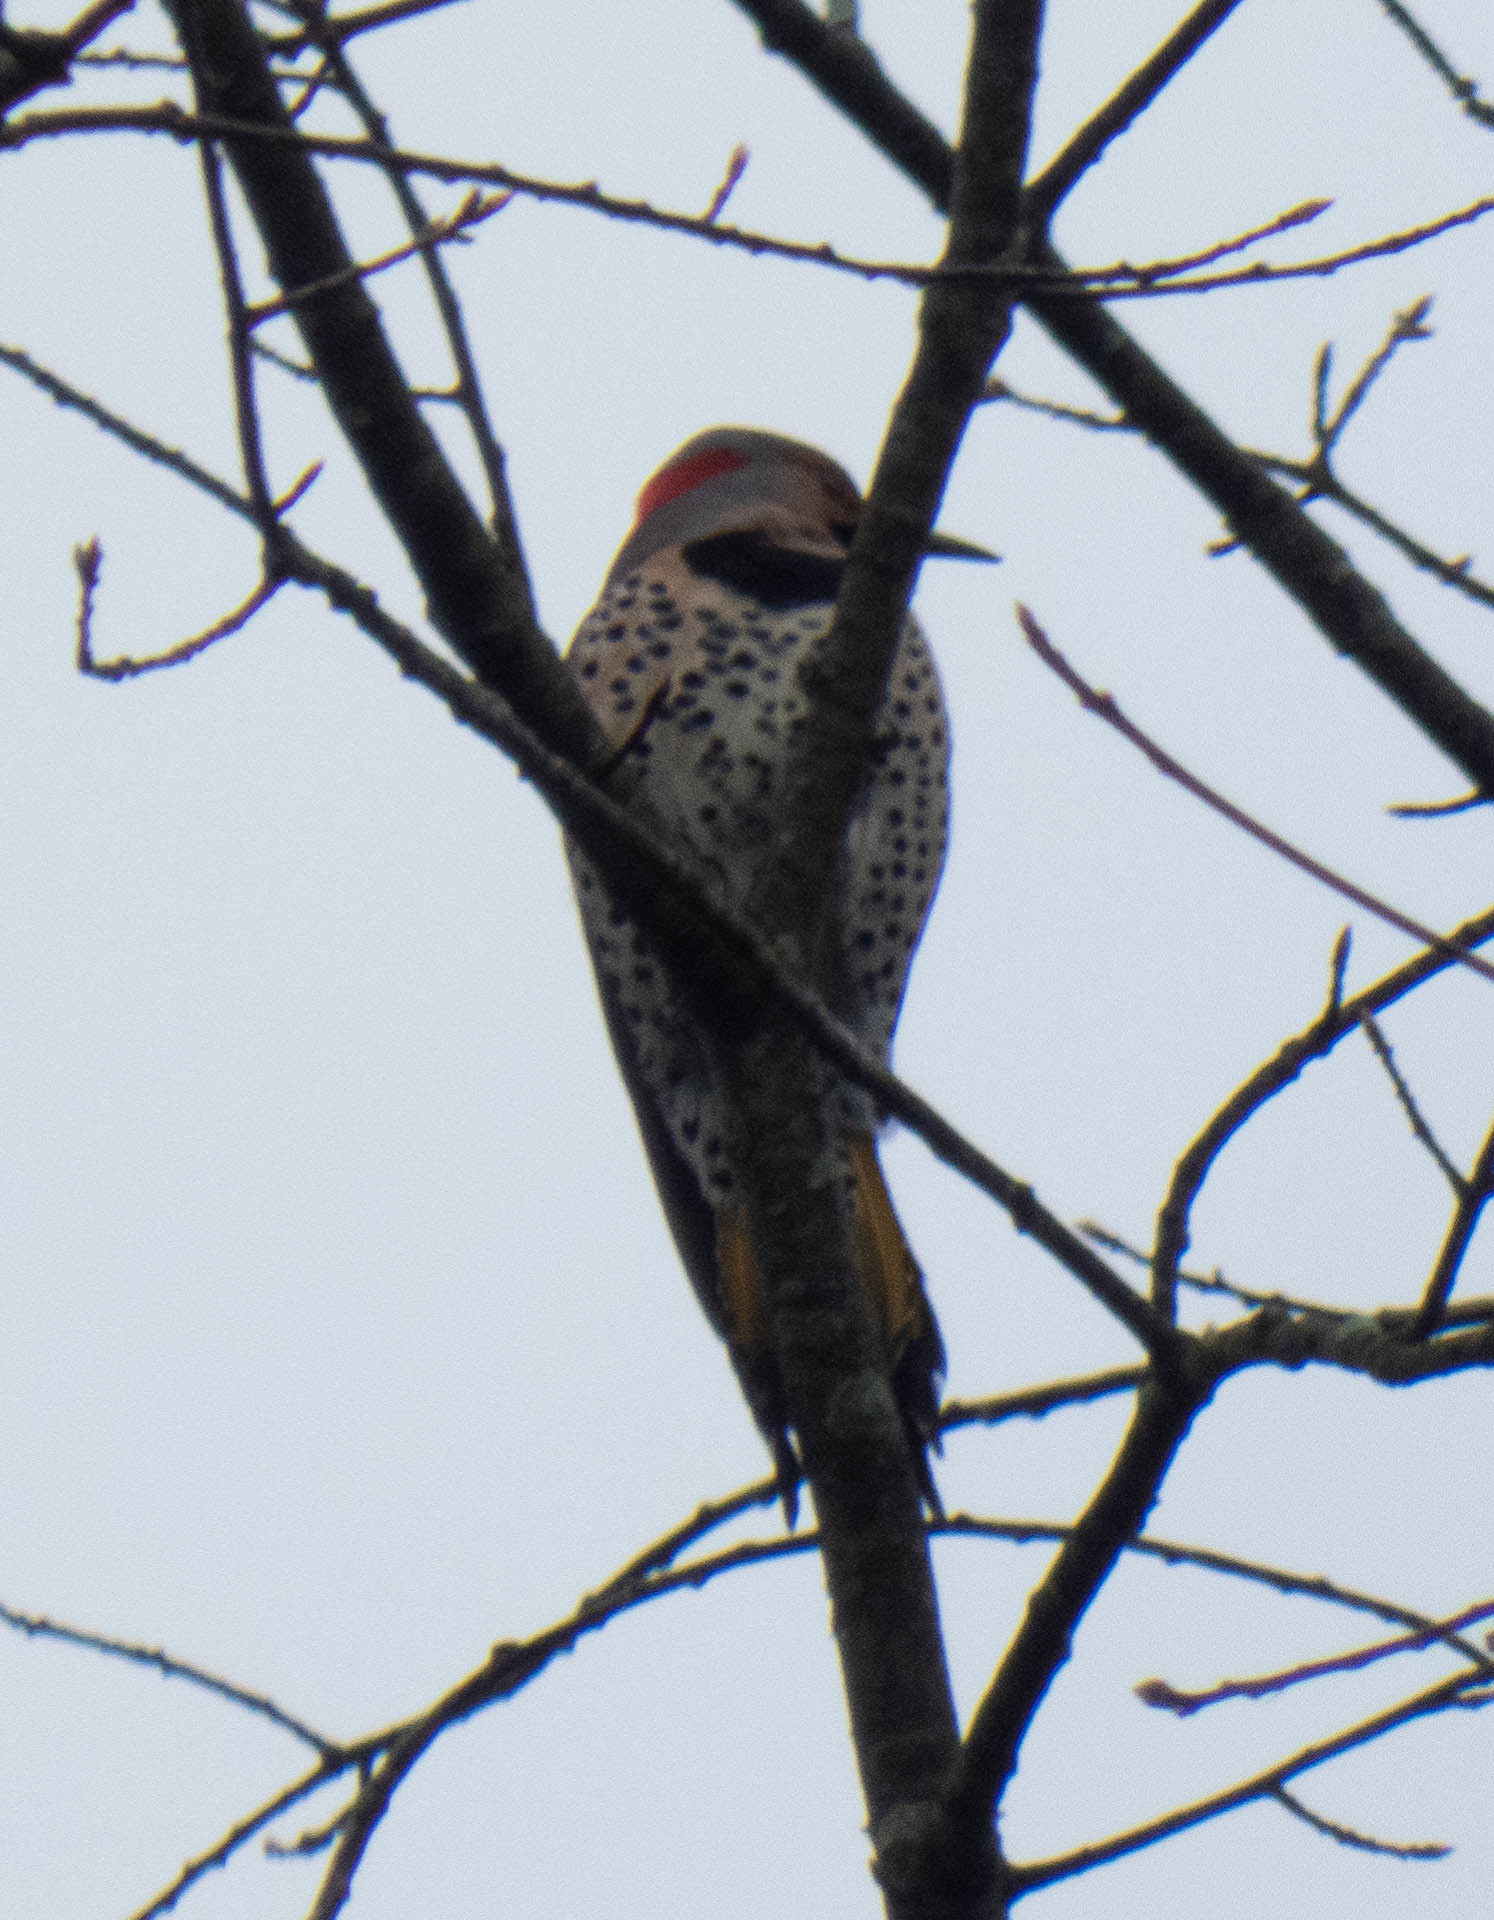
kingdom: Animalia
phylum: Chordata
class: Aves
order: Piciformes
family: Picidae
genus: Colaptes
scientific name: Colaptes auratus
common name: Northern flicker
